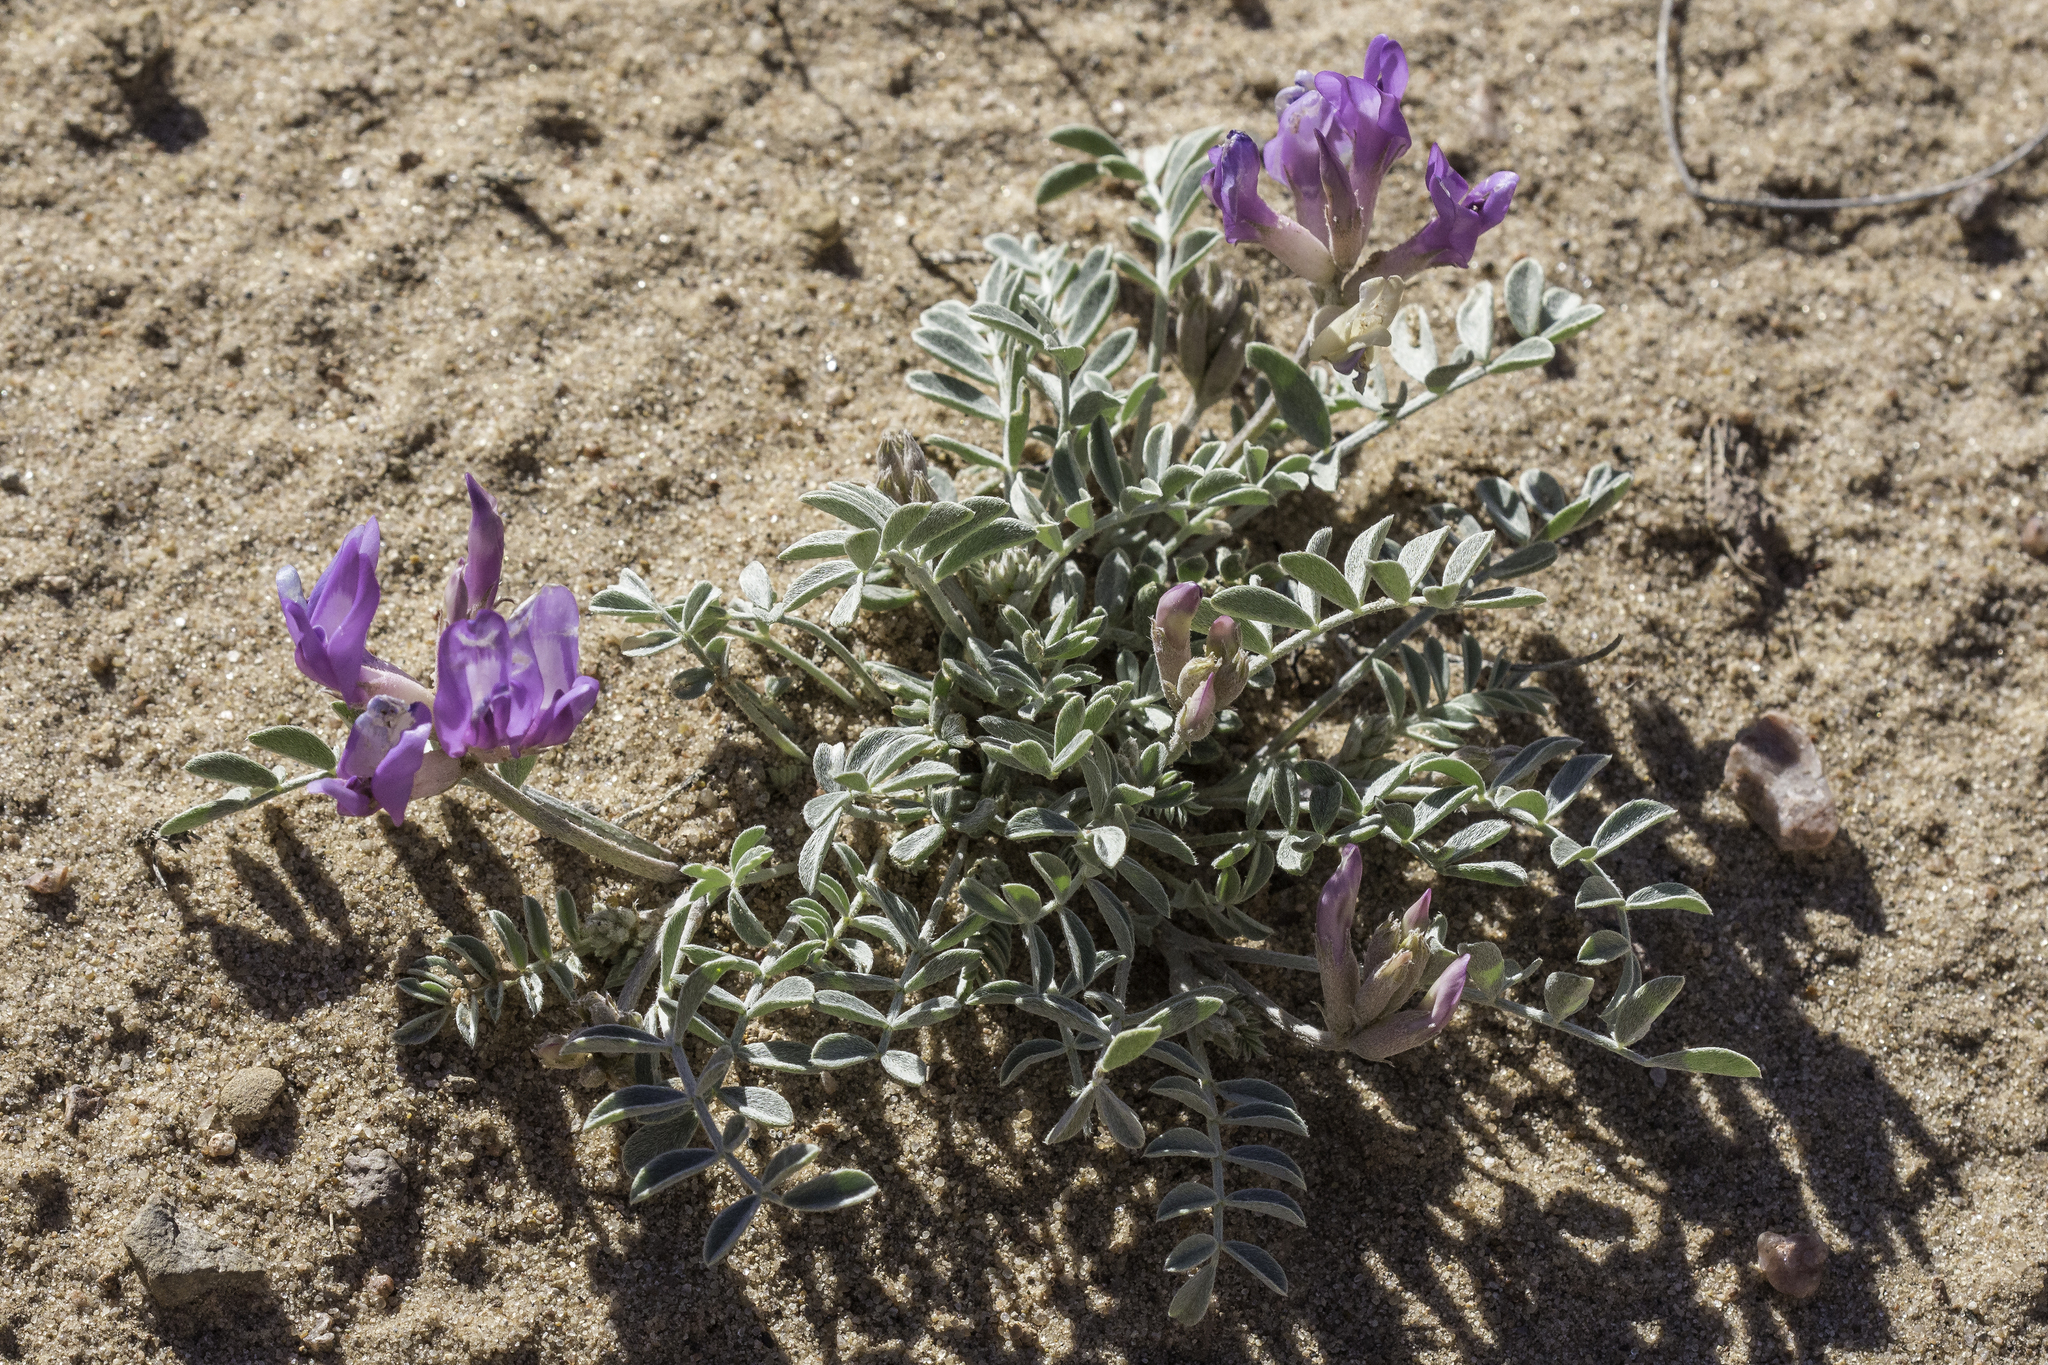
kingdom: Plantae
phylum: Tracheophyta
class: Magnoliopsida
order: Fabales
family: Fabaceae
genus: Astragalus
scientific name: Astragalus amphioxys
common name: Crescent milk-vetch
